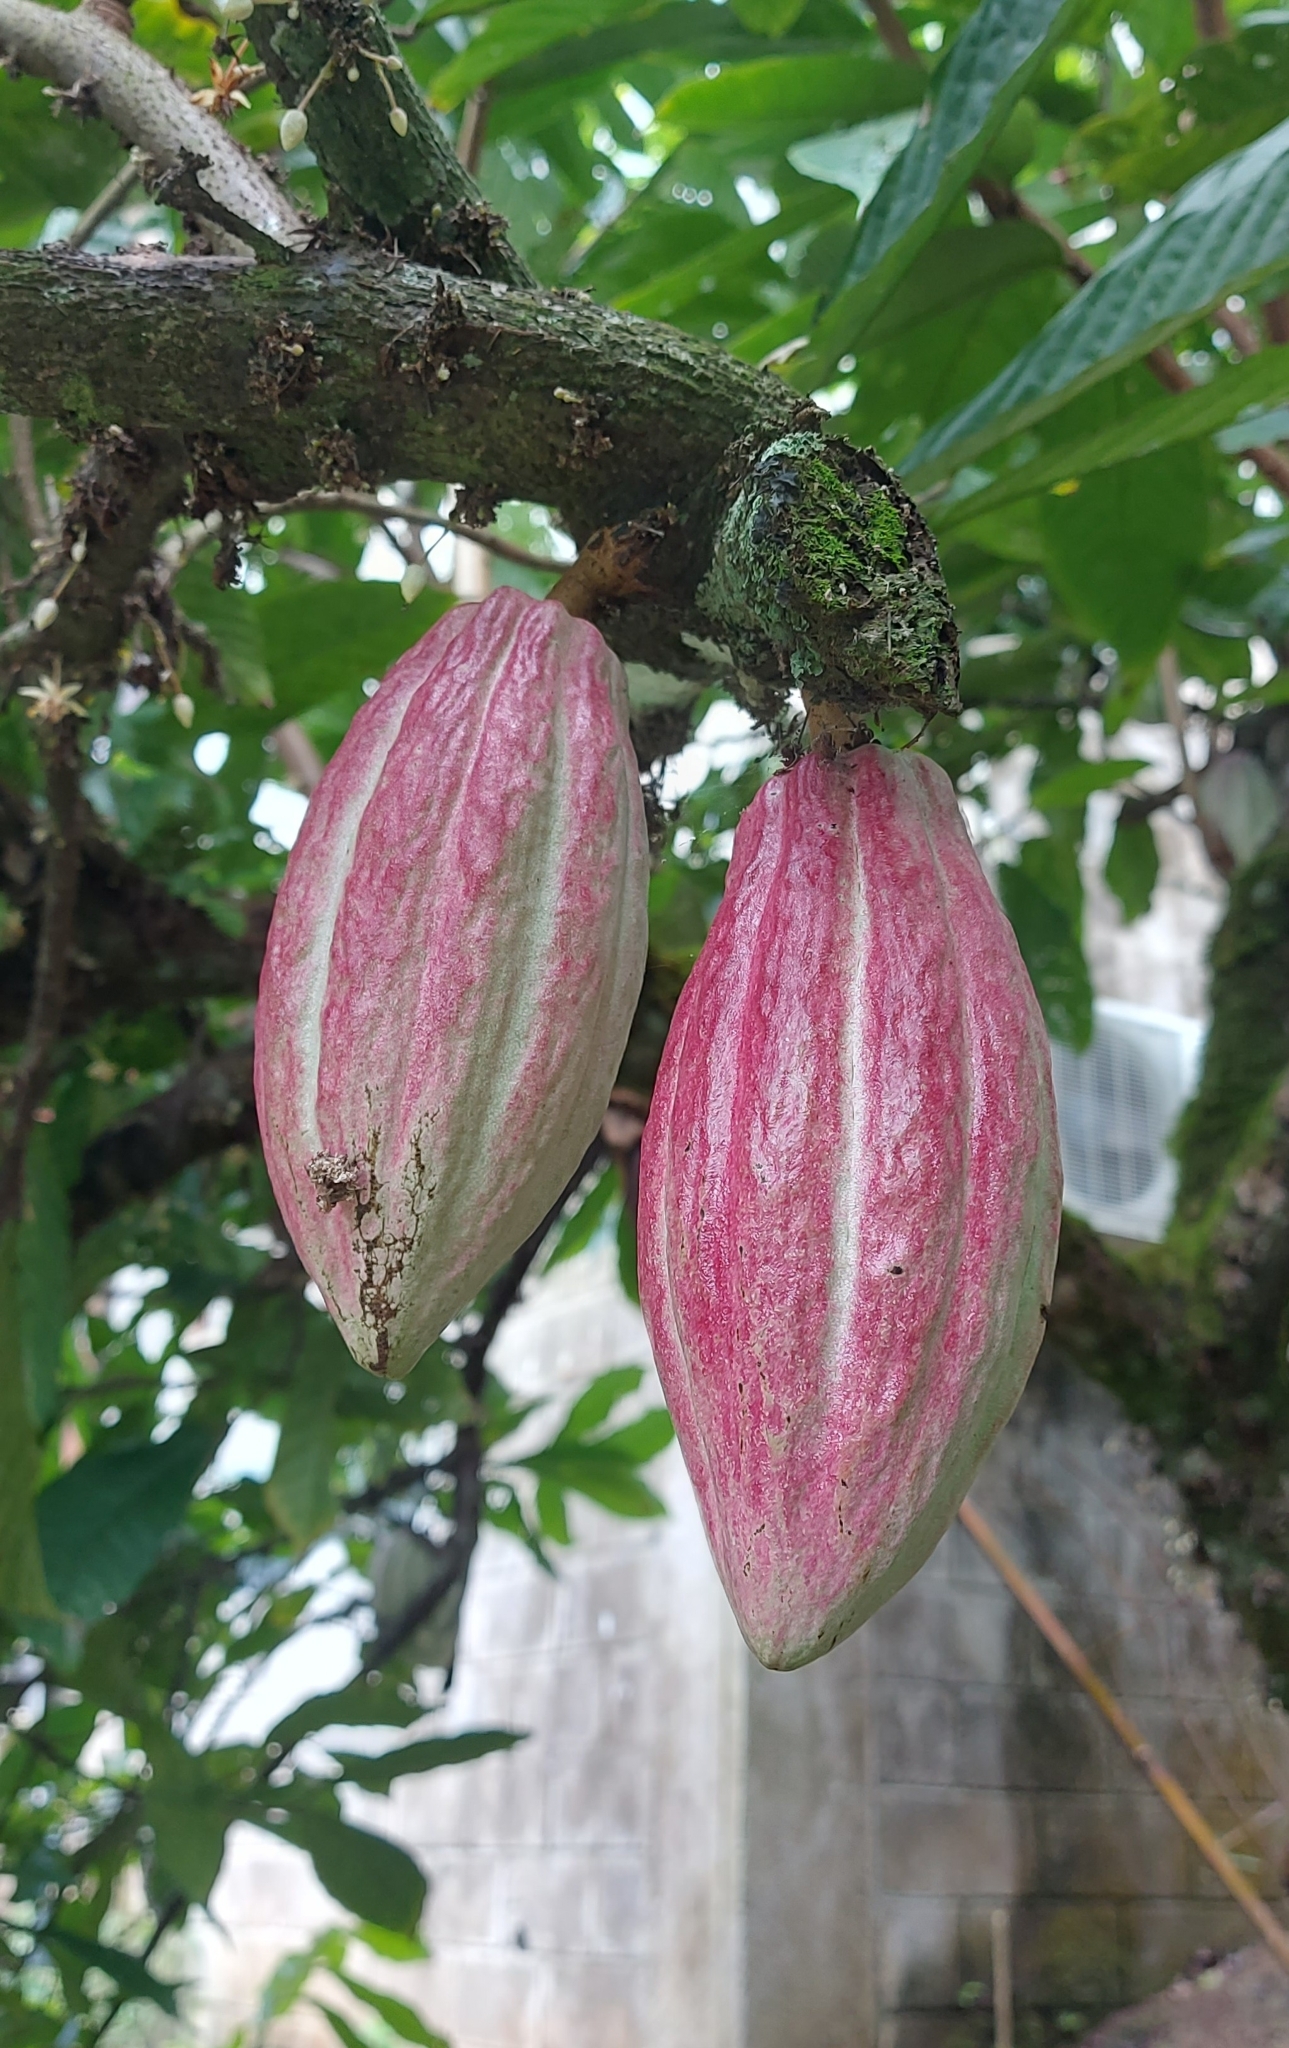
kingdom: Plantae
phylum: Tracheophyta
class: Magnoliopsida
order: Malvales
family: Malvaceae
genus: Theobroma
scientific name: Theobroma cacao
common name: Cocoa
